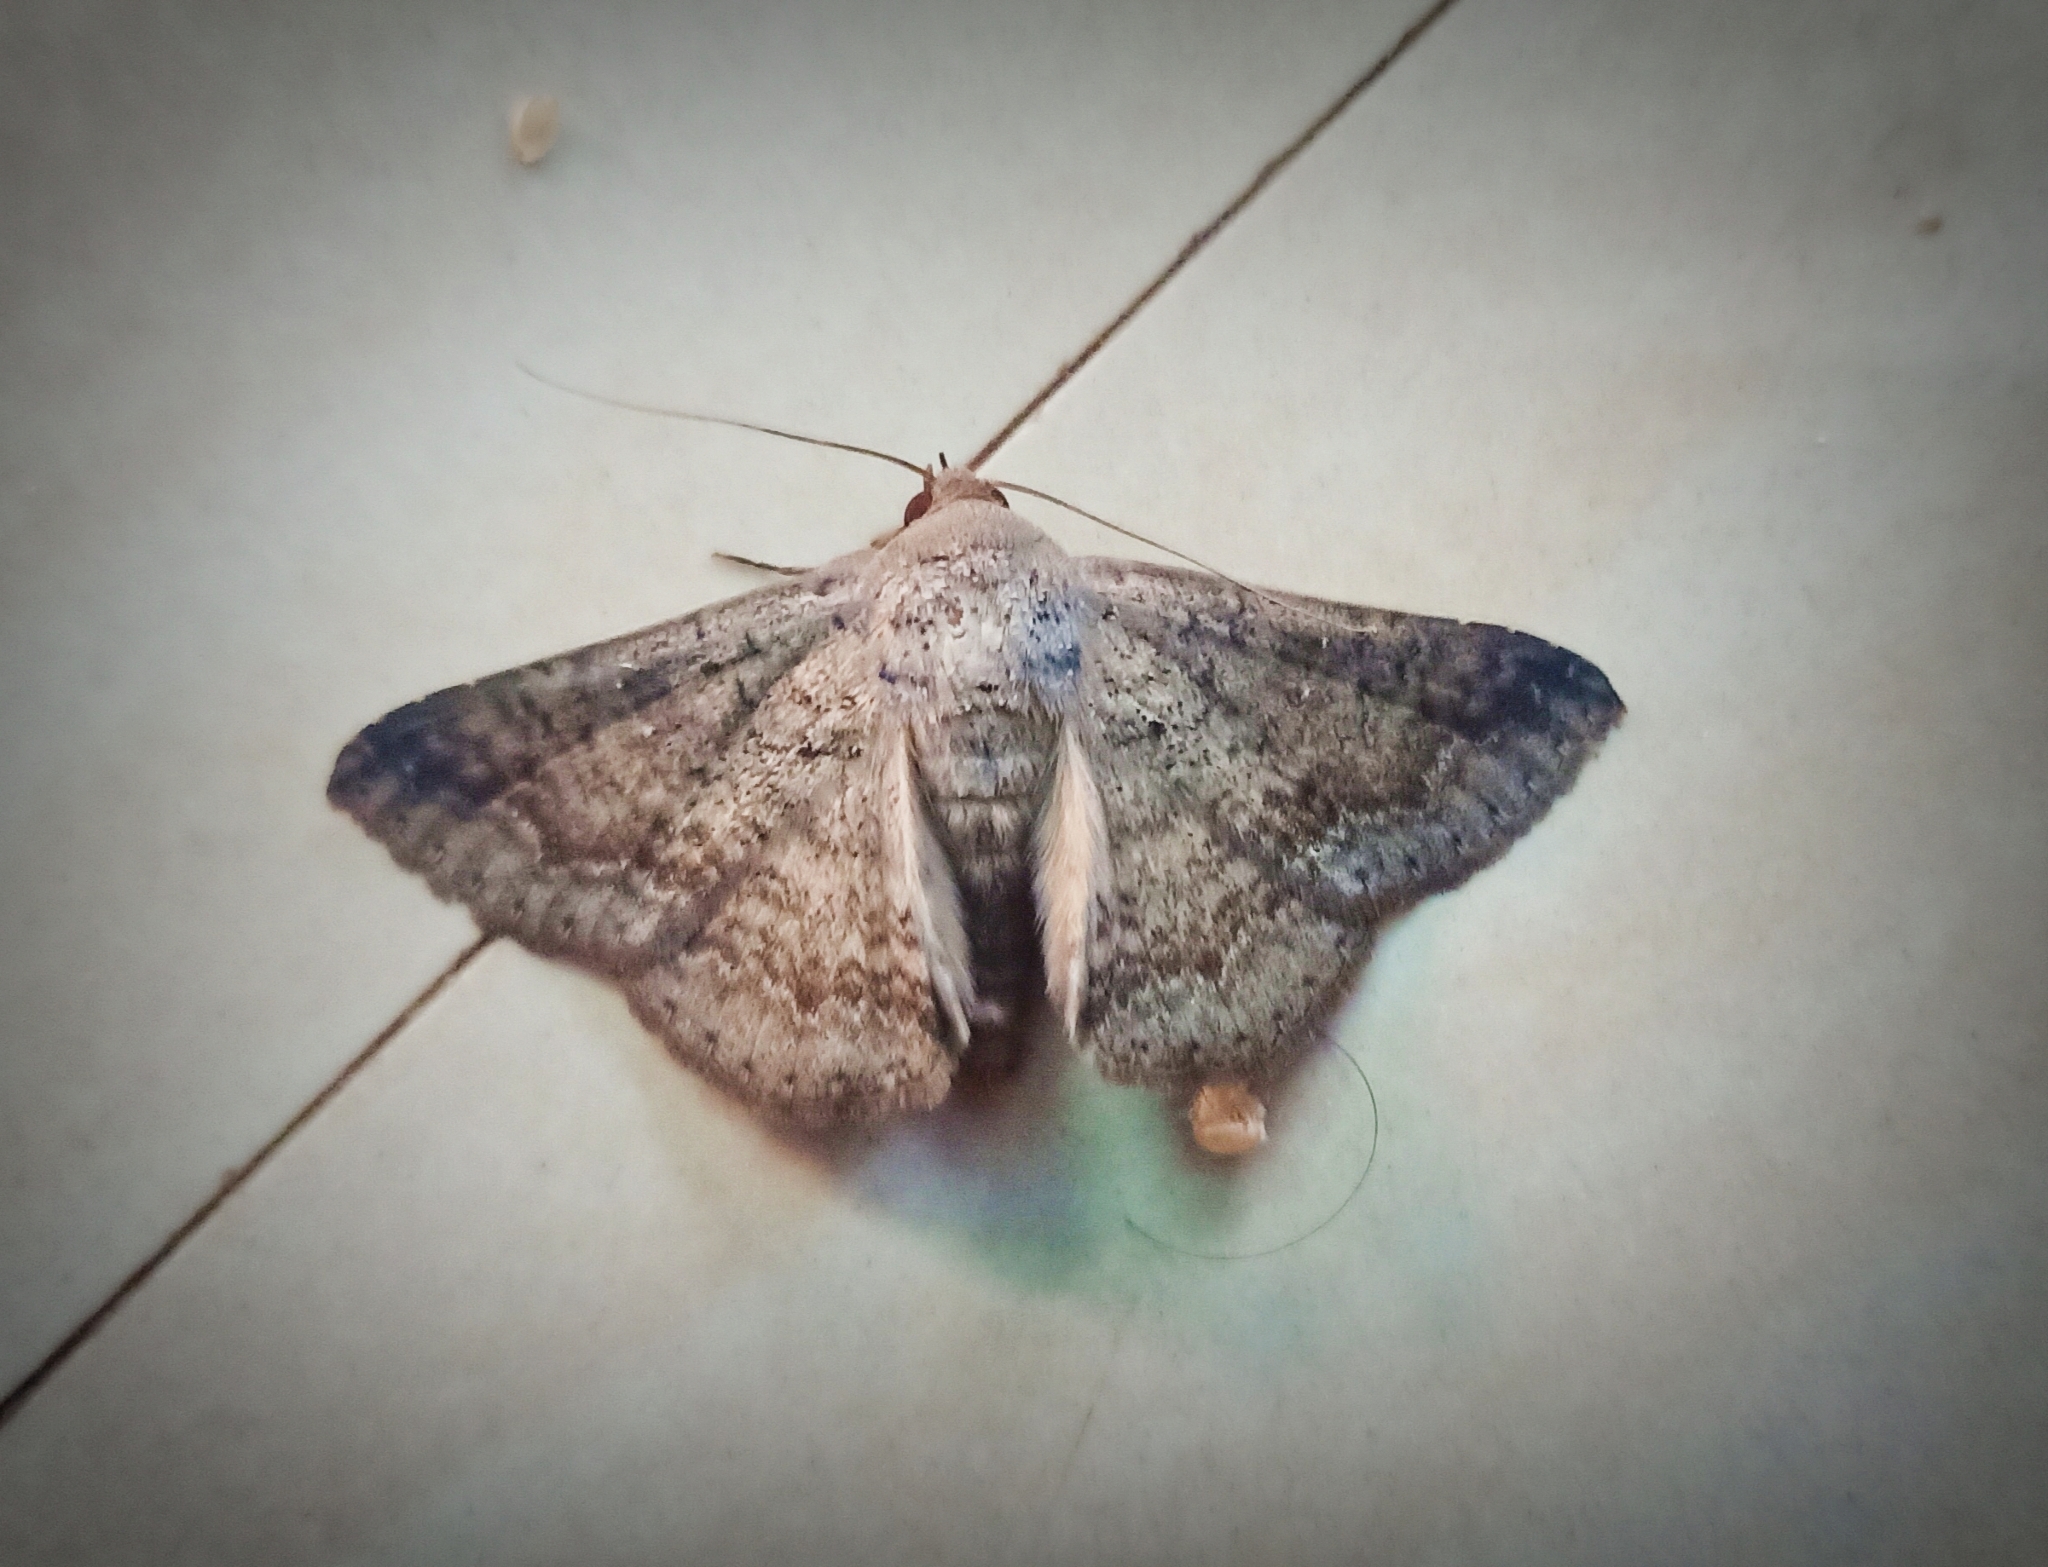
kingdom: Animalia
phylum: Arthropoda
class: Insecta
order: Lepidoptera
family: Erebidae
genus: Ericeia
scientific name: Ericeia inangulata
